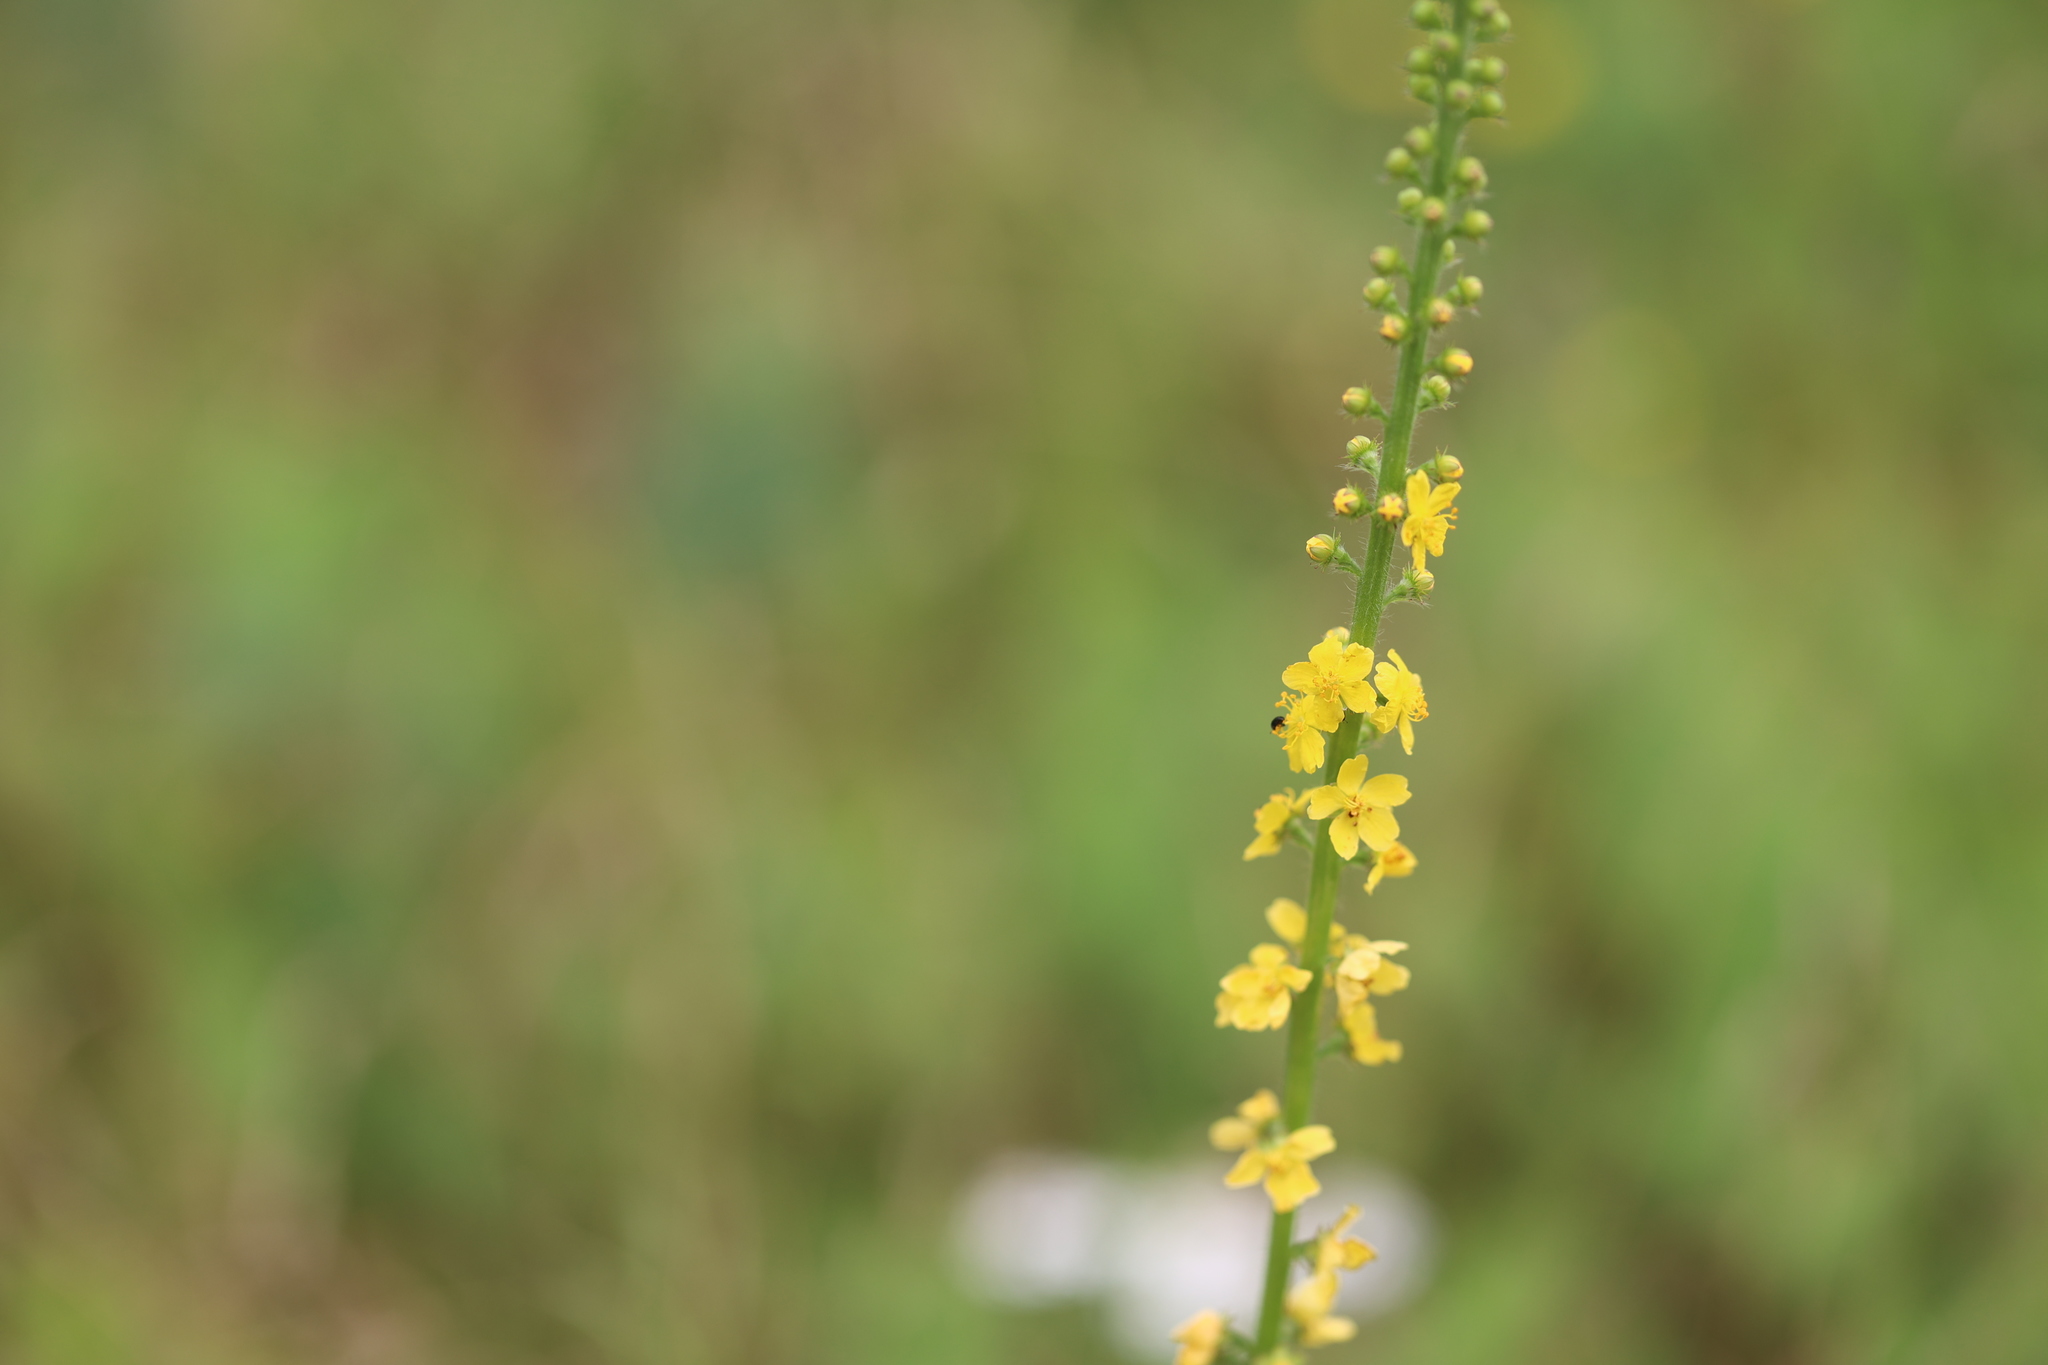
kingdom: Plantae
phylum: Tracheophyta
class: Magnoliopsida
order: Rosales
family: Rosaceae
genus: Agrimonia
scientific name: Agrimonia eupatoria
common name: Agrimony
